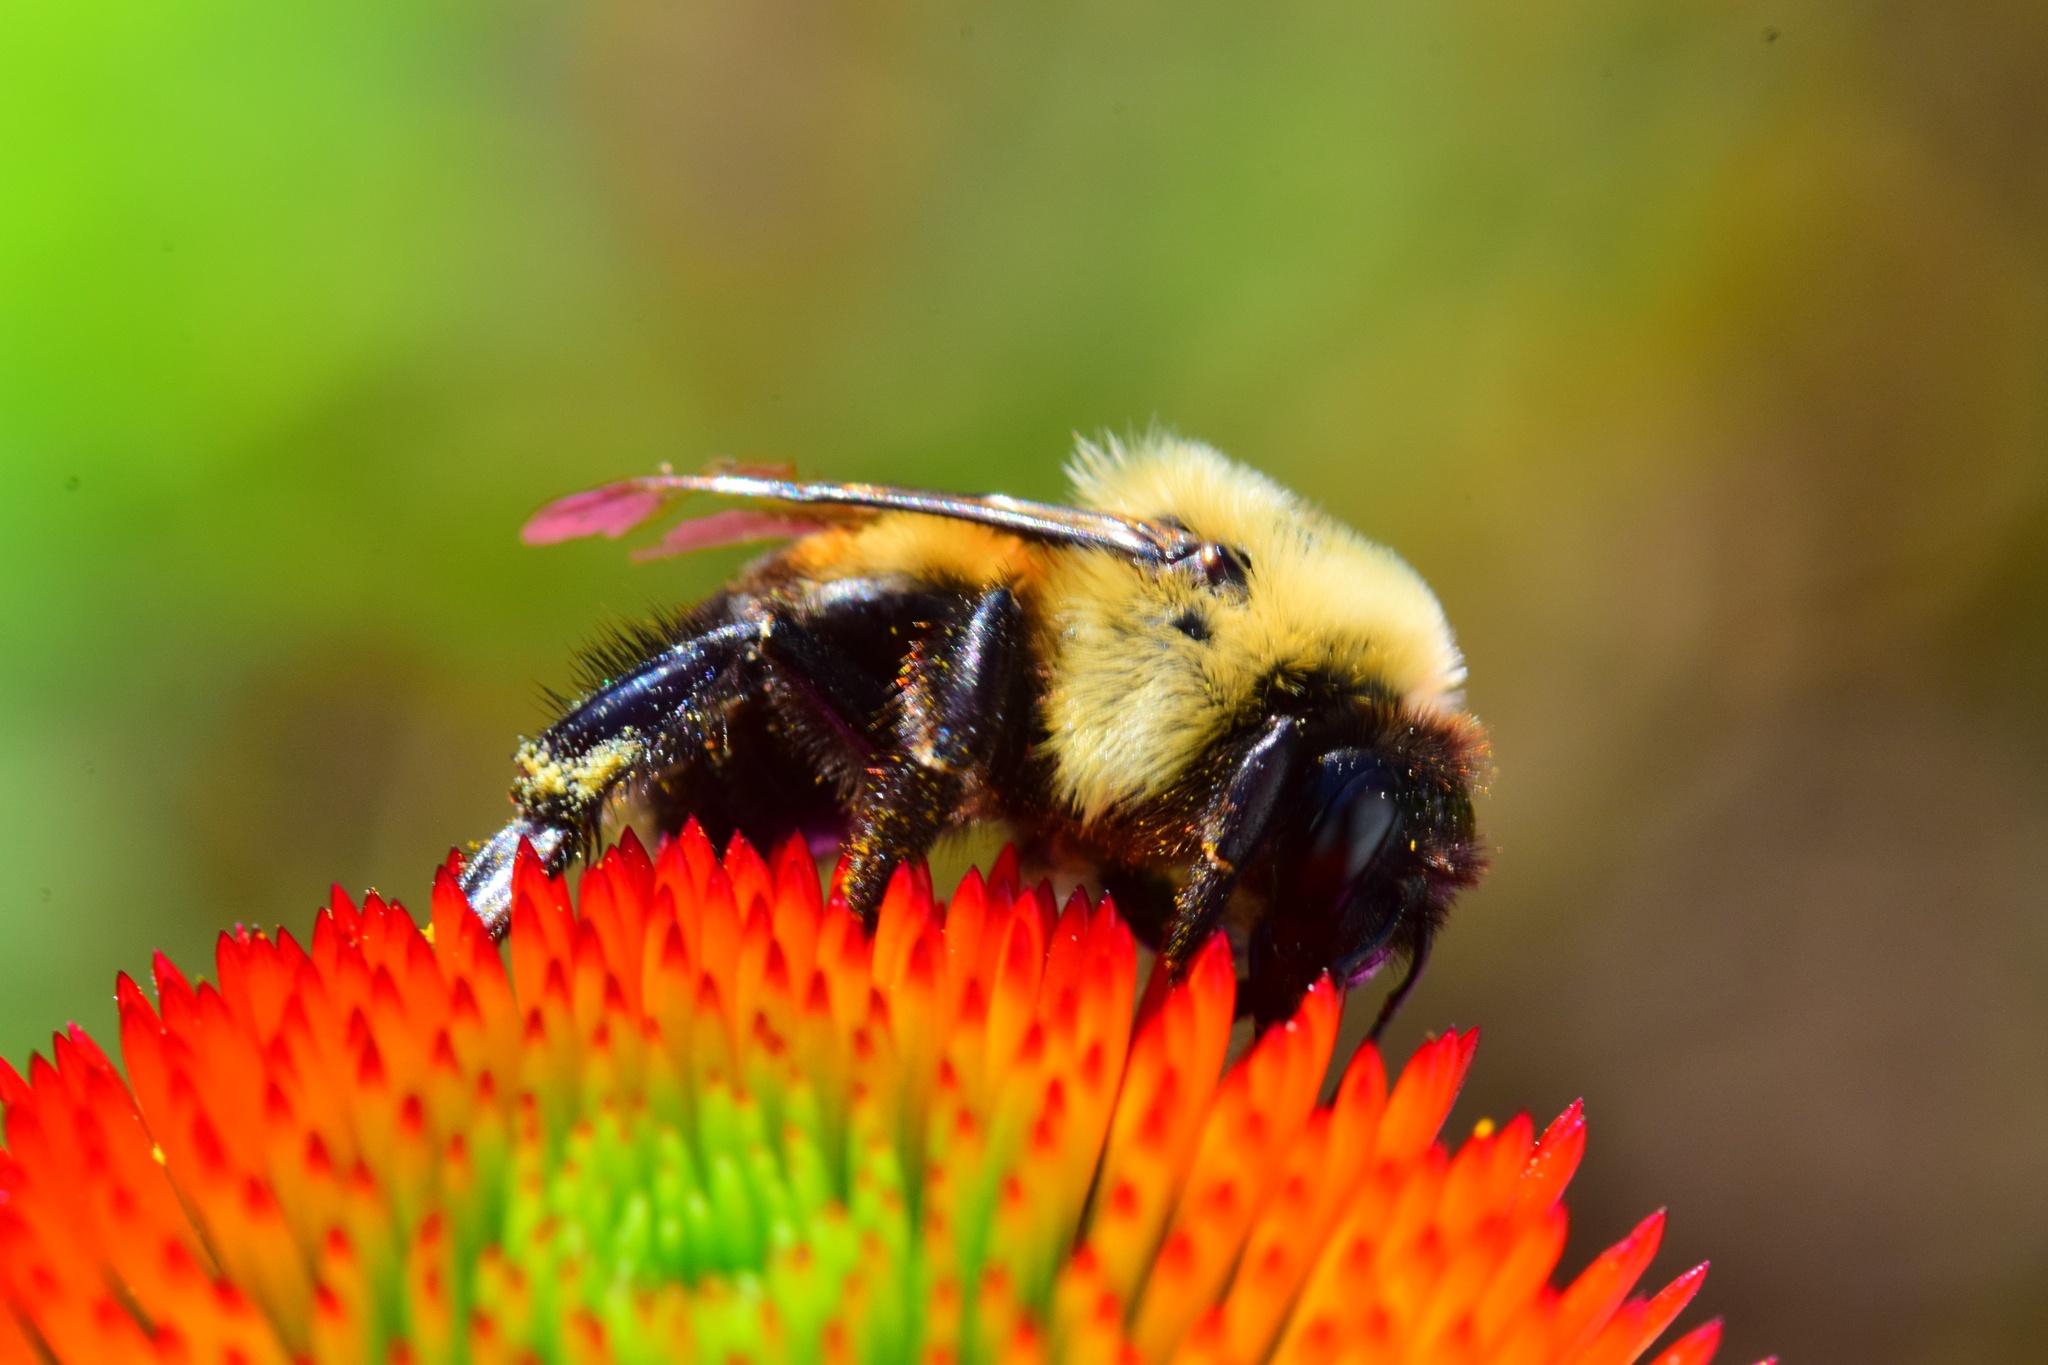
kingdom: Animalia
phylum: Arthropoda
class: Insecta
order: Hymenoptera
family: Apidae
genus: Bombus
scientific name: Bombus griseocollis
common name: Brown-belted bumble bee
